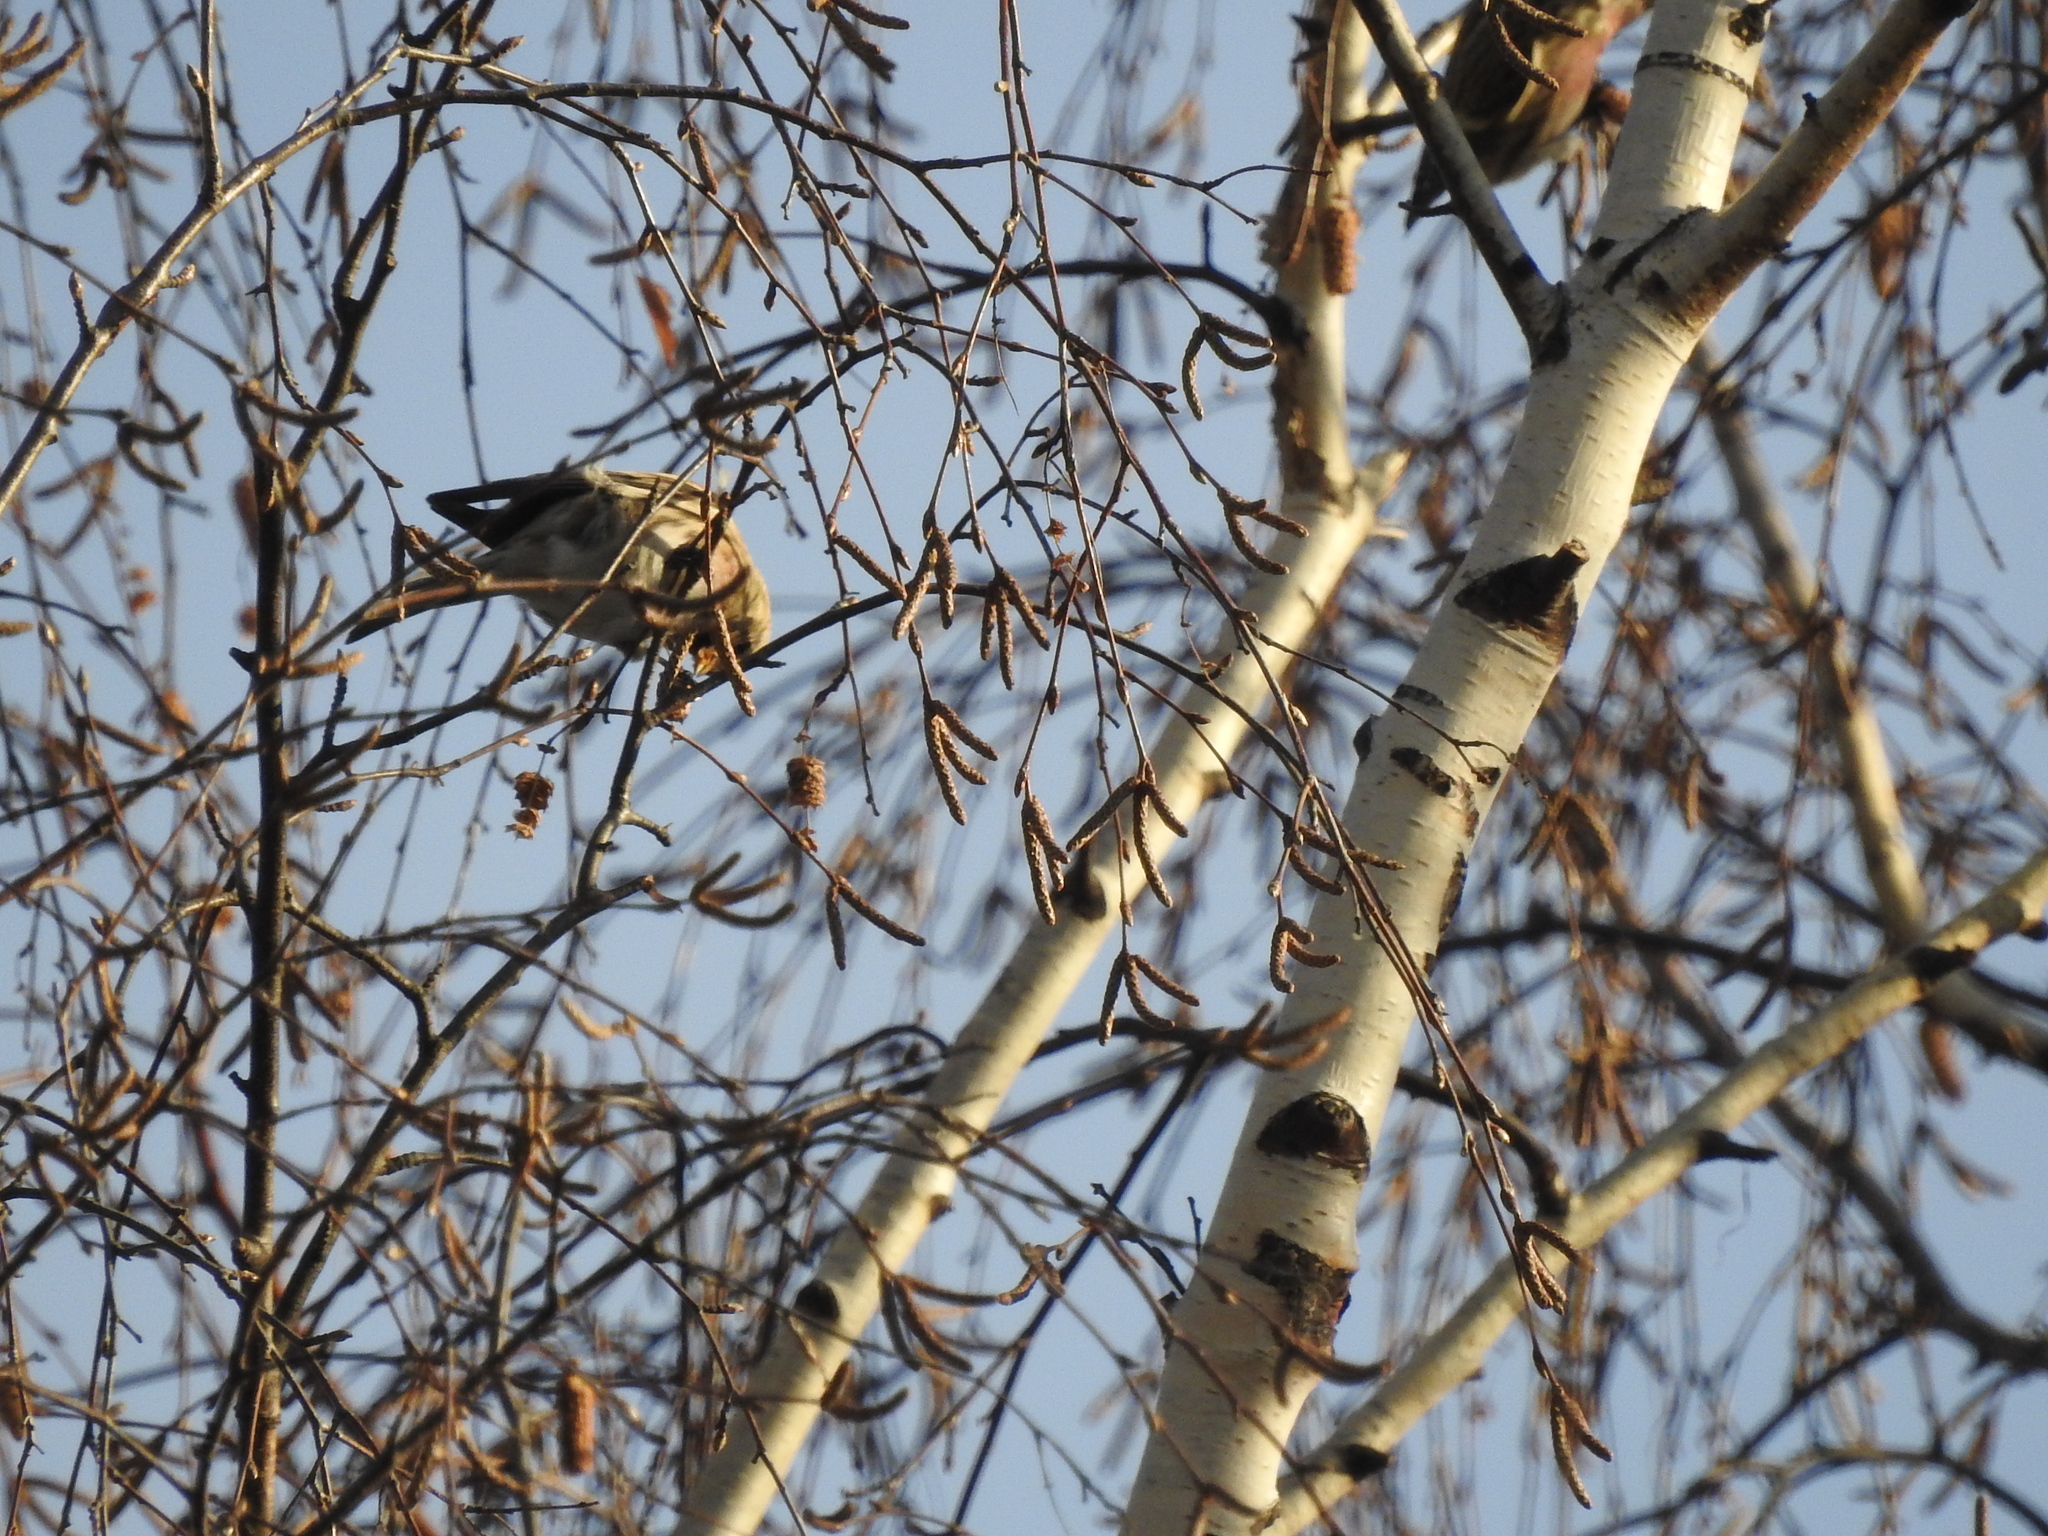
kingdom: Animalia
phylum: Chordata
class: Aves
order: Passeriformes
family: Fringillidae
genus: Acanthis
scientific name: Acanthis flammea
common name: Common redpoll
